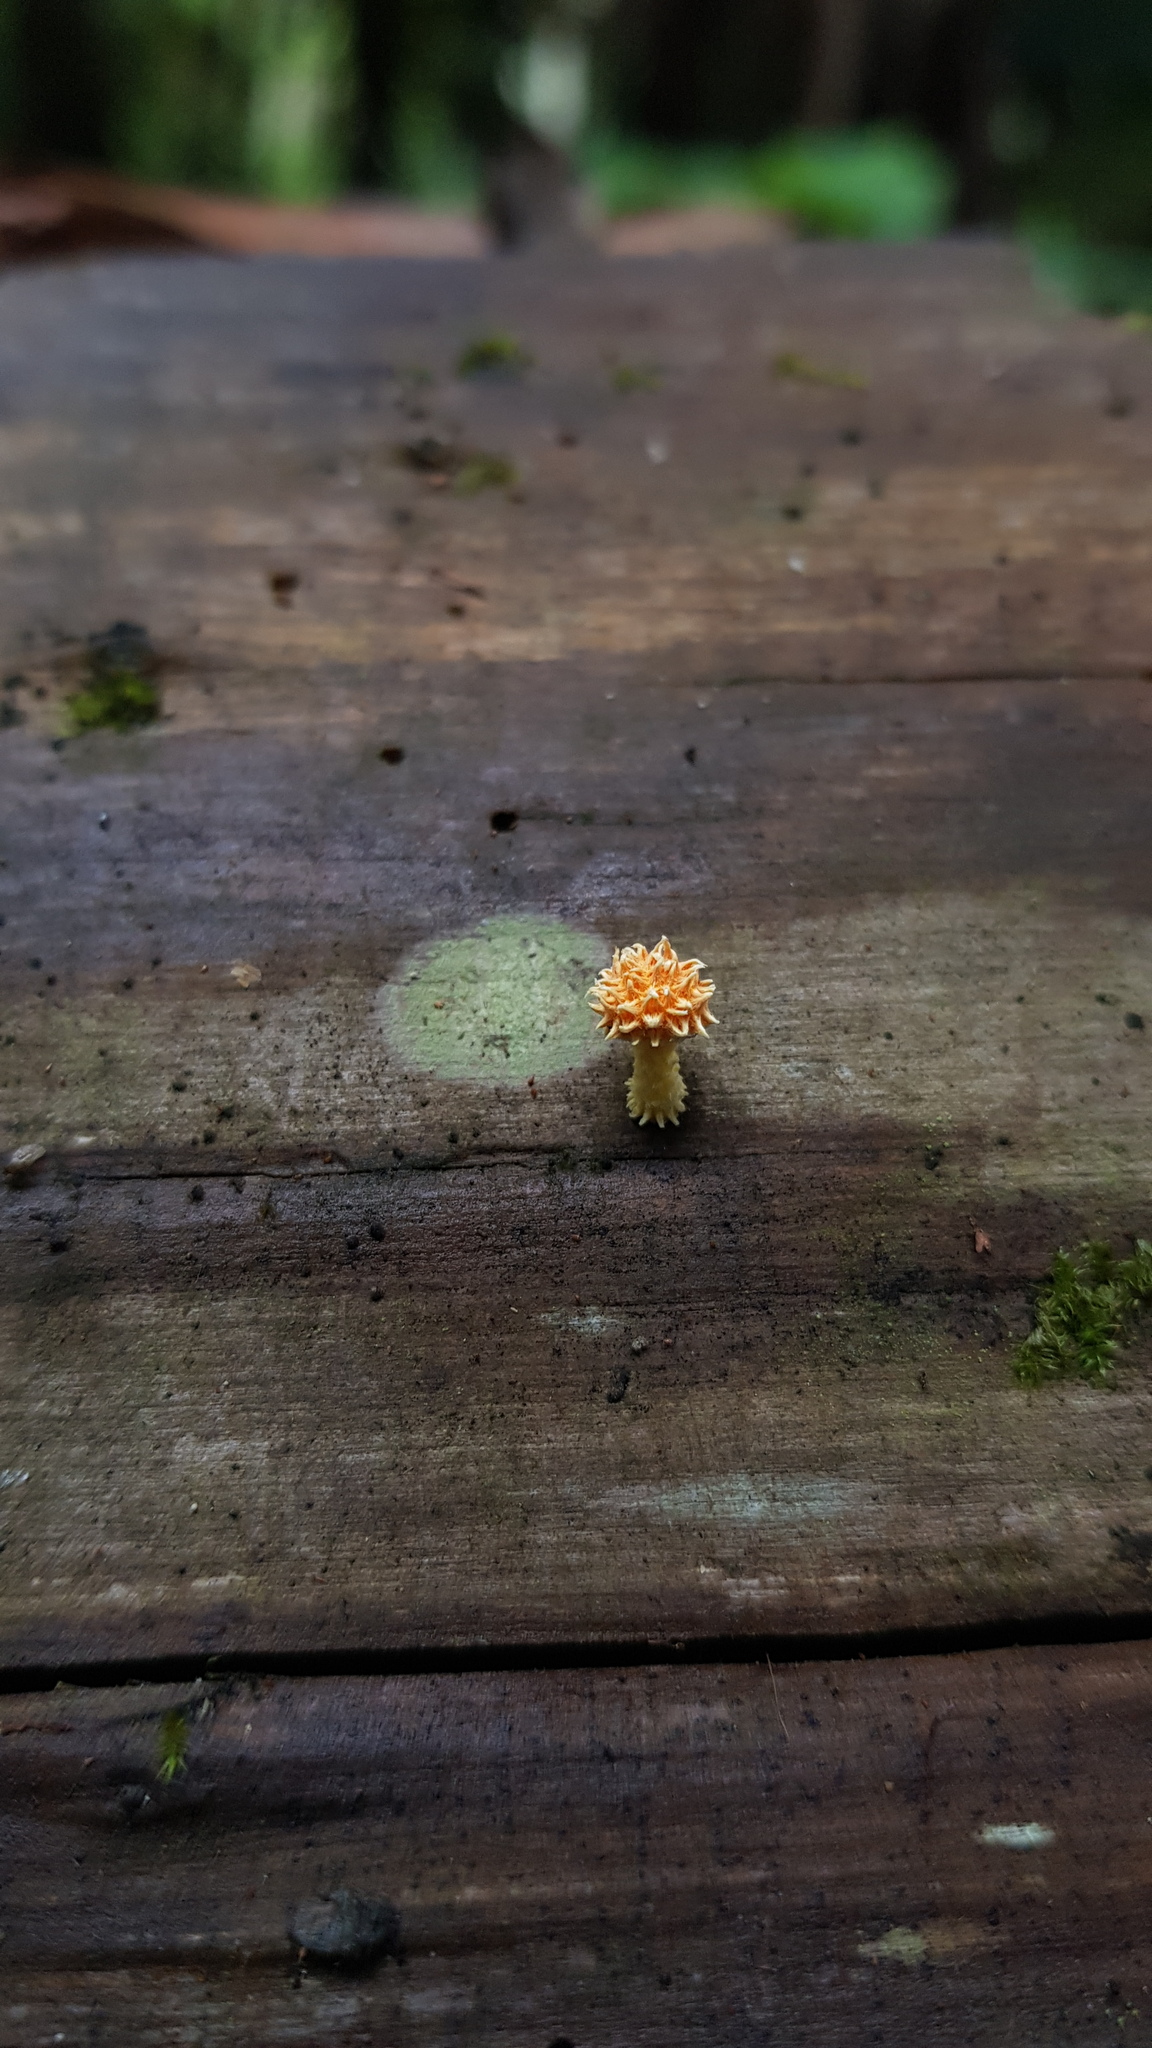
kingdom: Fungi
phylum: Basidiomycota
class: Agaricomycetes
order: Agaricales
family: Physalacriaceae
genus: Cyptotrama
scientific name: Cyptotrama asprata
